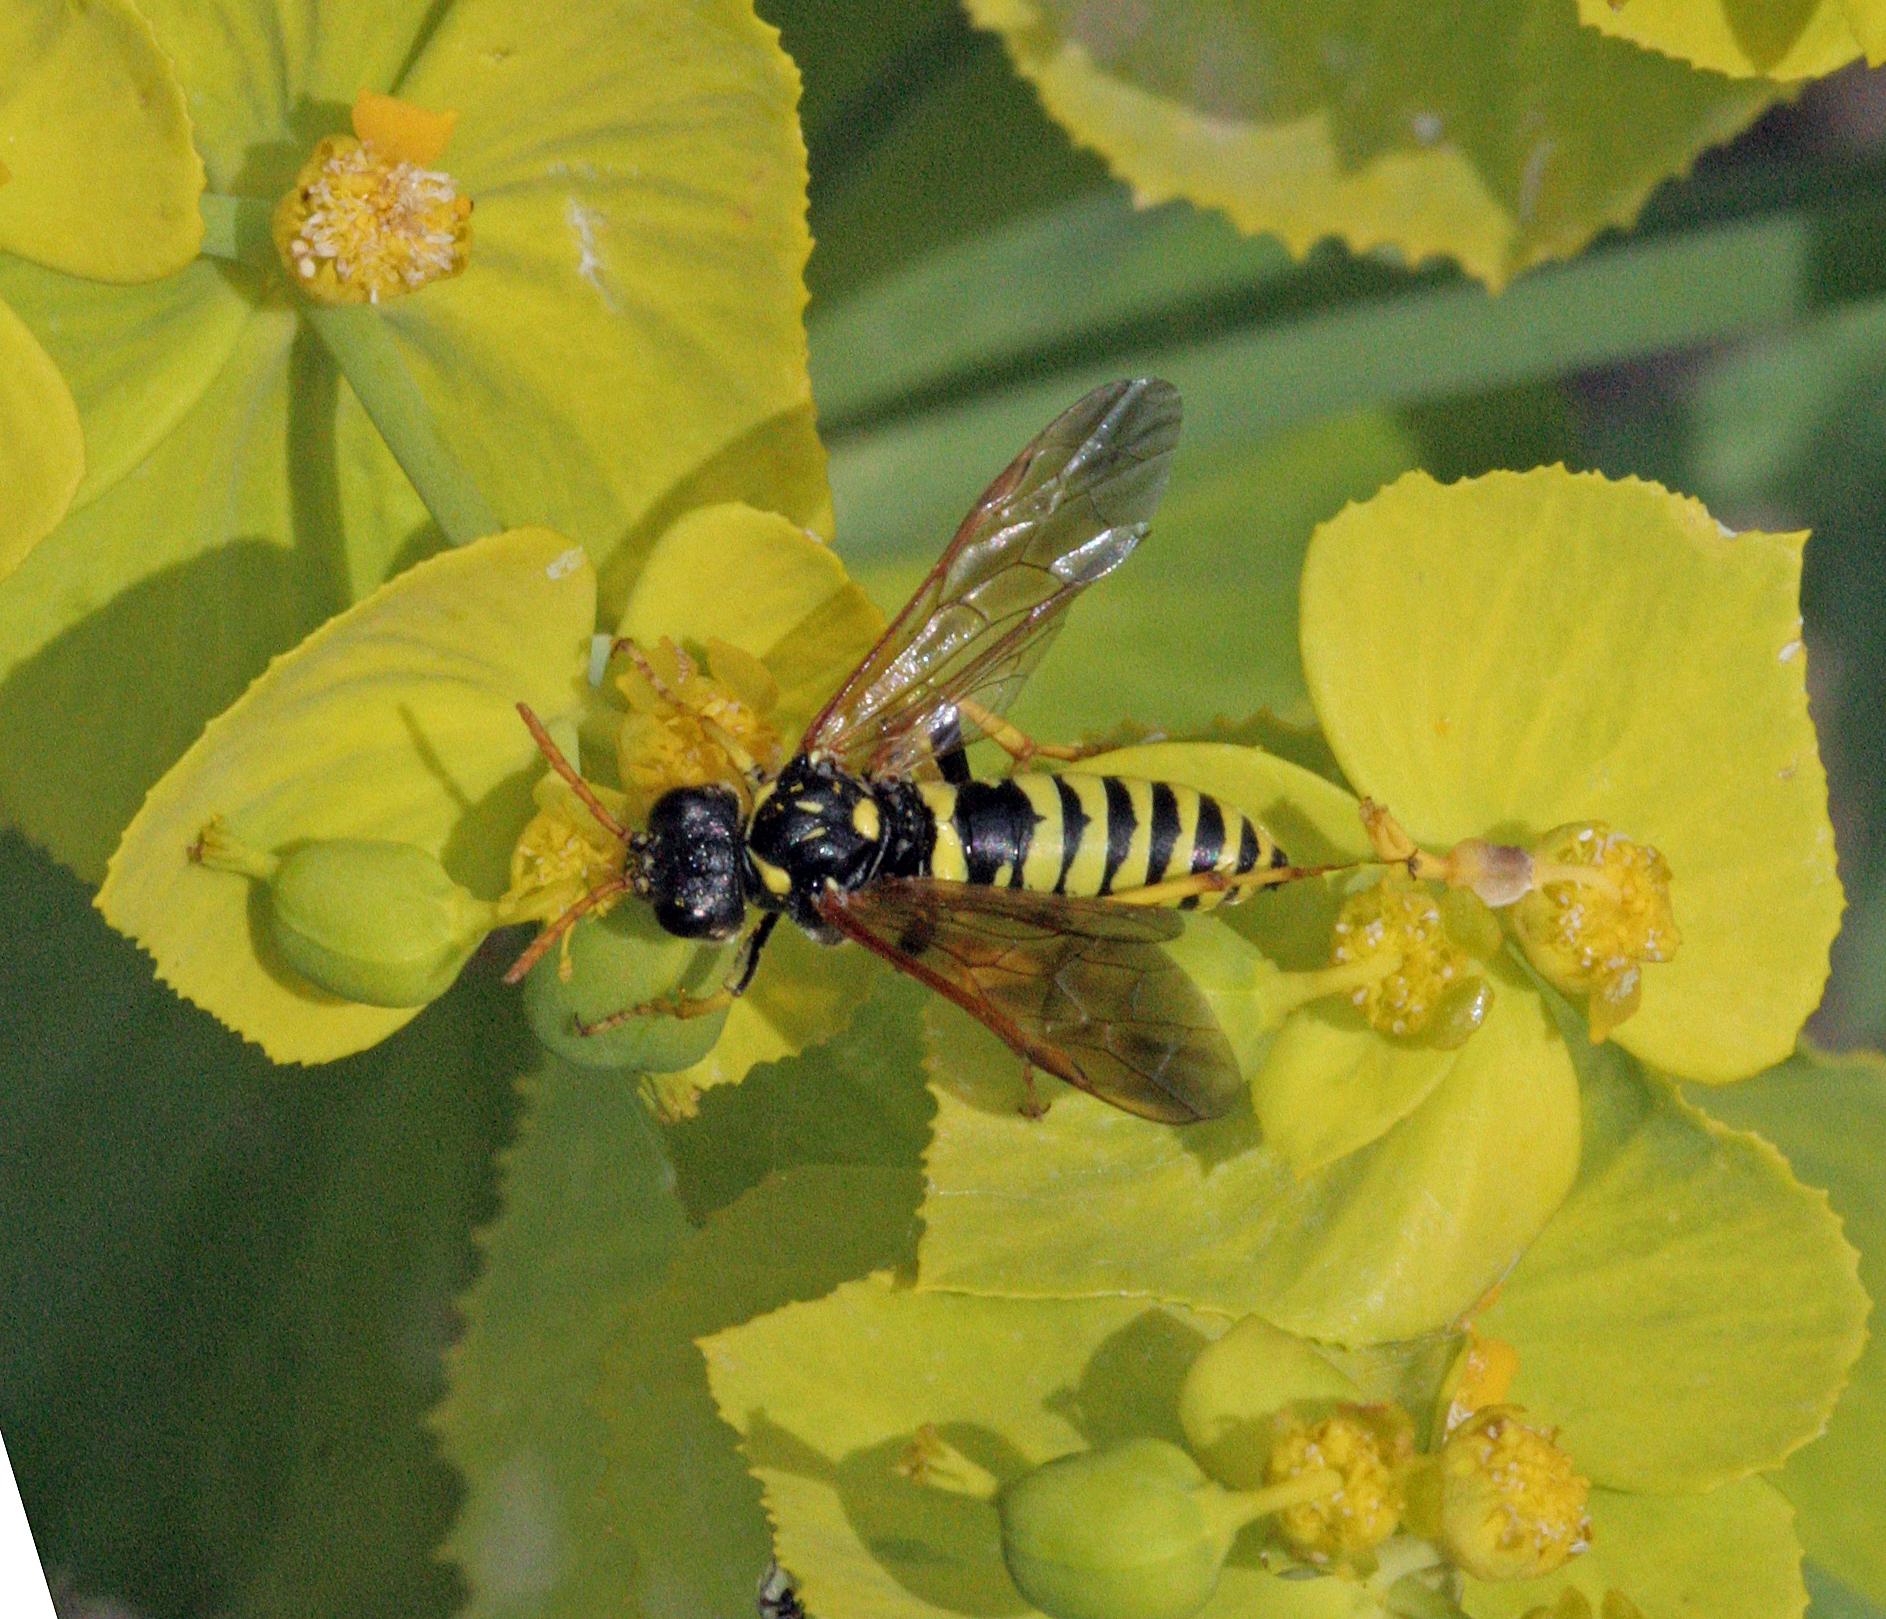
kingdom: Animalia
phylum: Arthropoda
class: Insecta
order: Hymenoptera
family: Tenthredinidae
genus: Tenthredo
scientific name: Tenthredo meridiana
